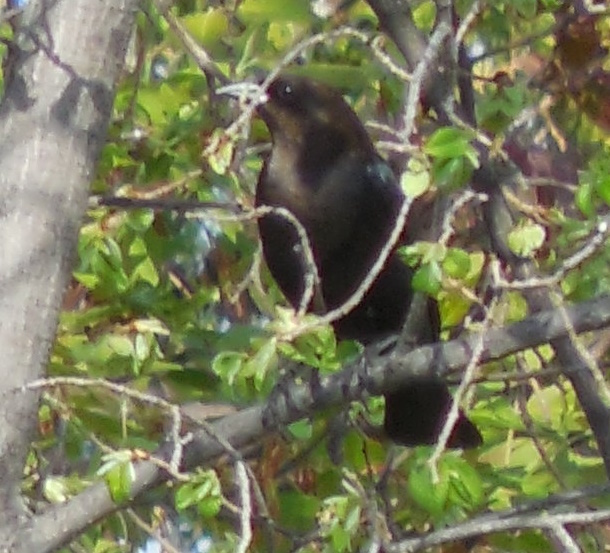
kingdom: Animalia
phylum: Chordata
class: Aves
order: Passeriformes
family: Icteridae
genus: Molothrus
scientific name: Molothrus ater
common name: Brown-headed cowbird
